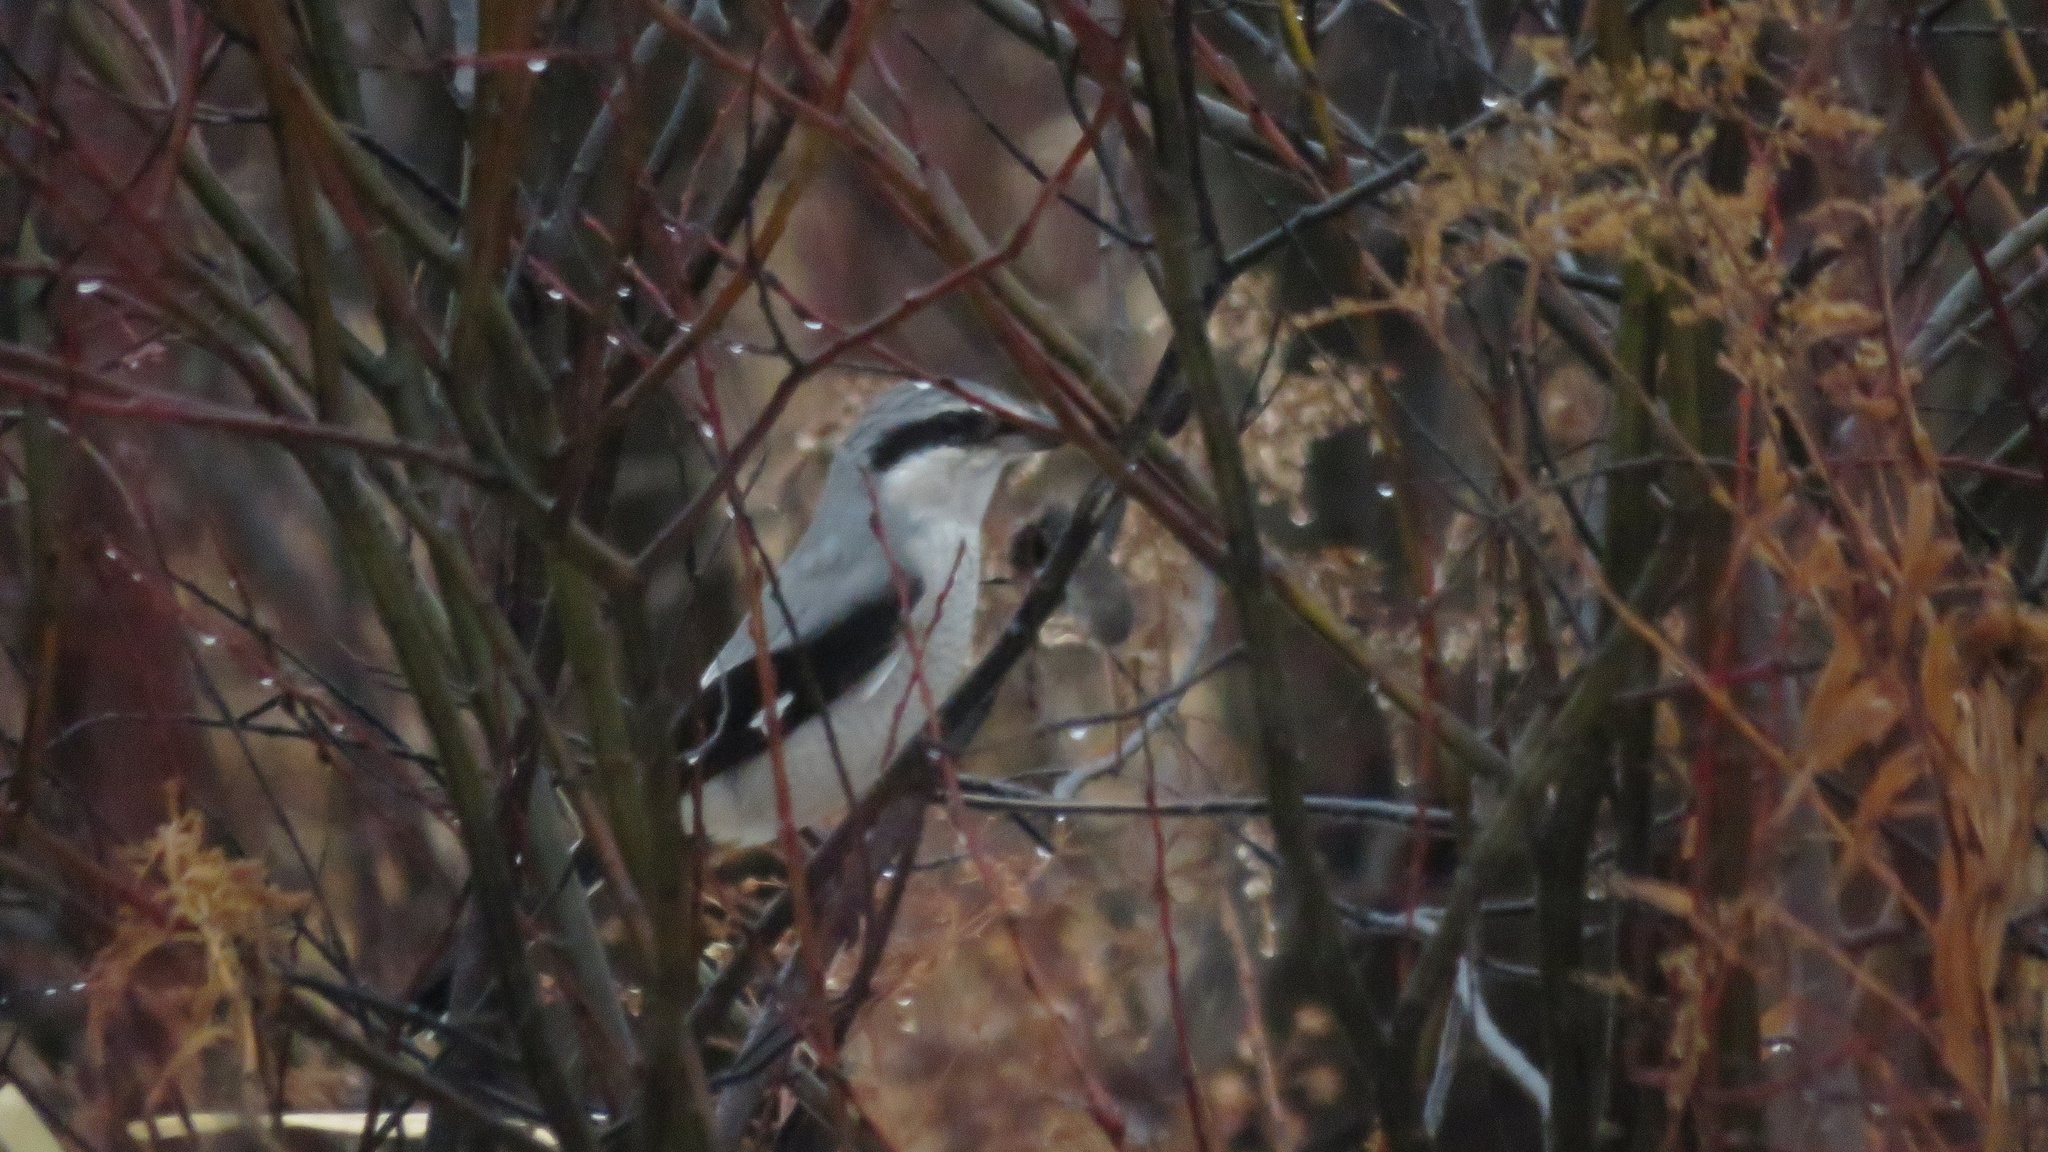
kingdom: Animalia
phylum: Chordata
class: Aves
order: Passeriformes
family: Laniidae
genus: Lanius
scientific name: Lanius borealis
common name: Northern shrike
